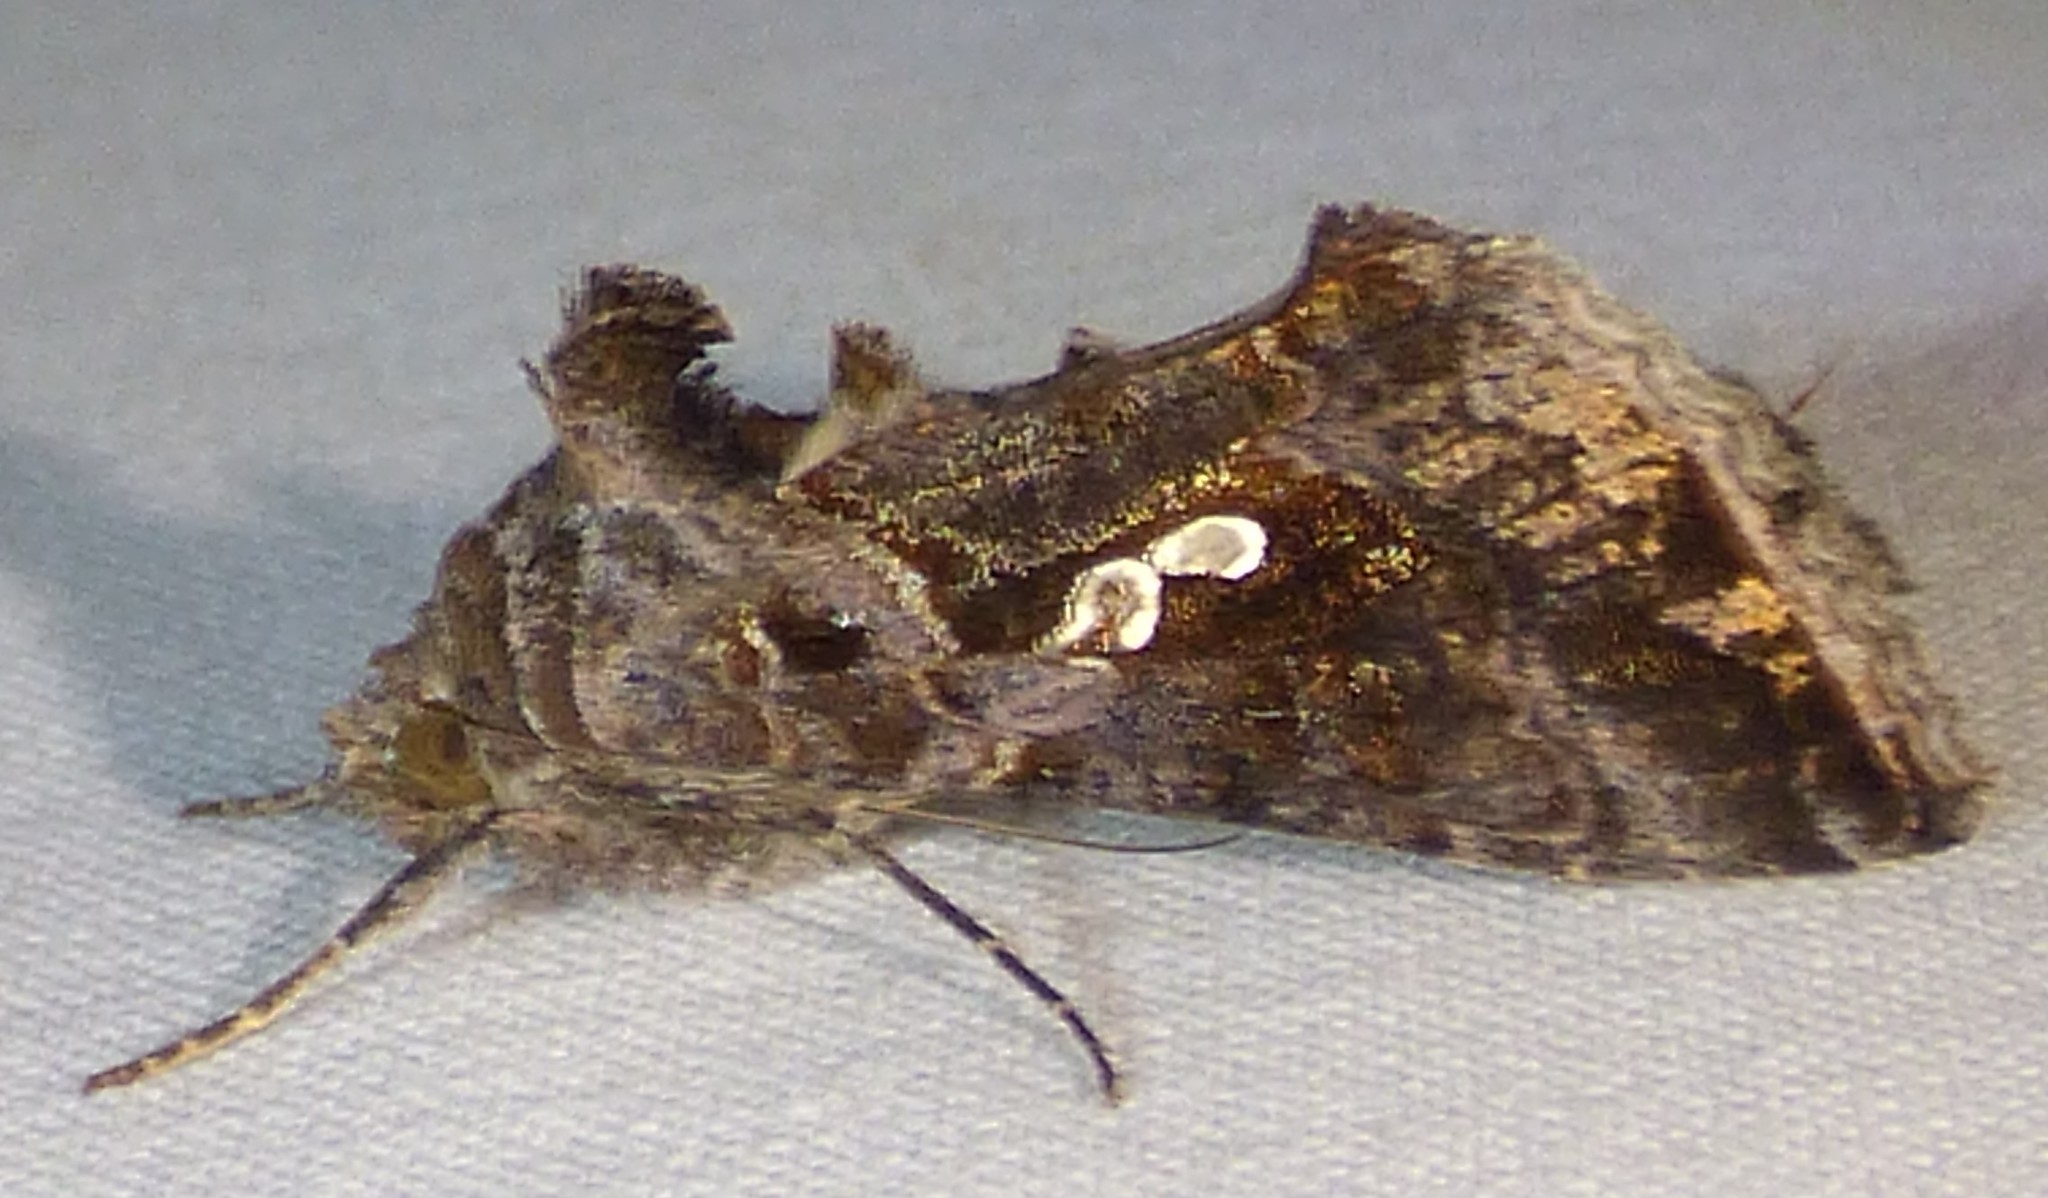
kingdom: Animalia
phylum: Arthropoda
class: Insecta
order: Lepidoptera
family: Noctuidae
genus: Chrysodeixis
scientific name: Chrysodeixis includens
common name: Cutworm moth
